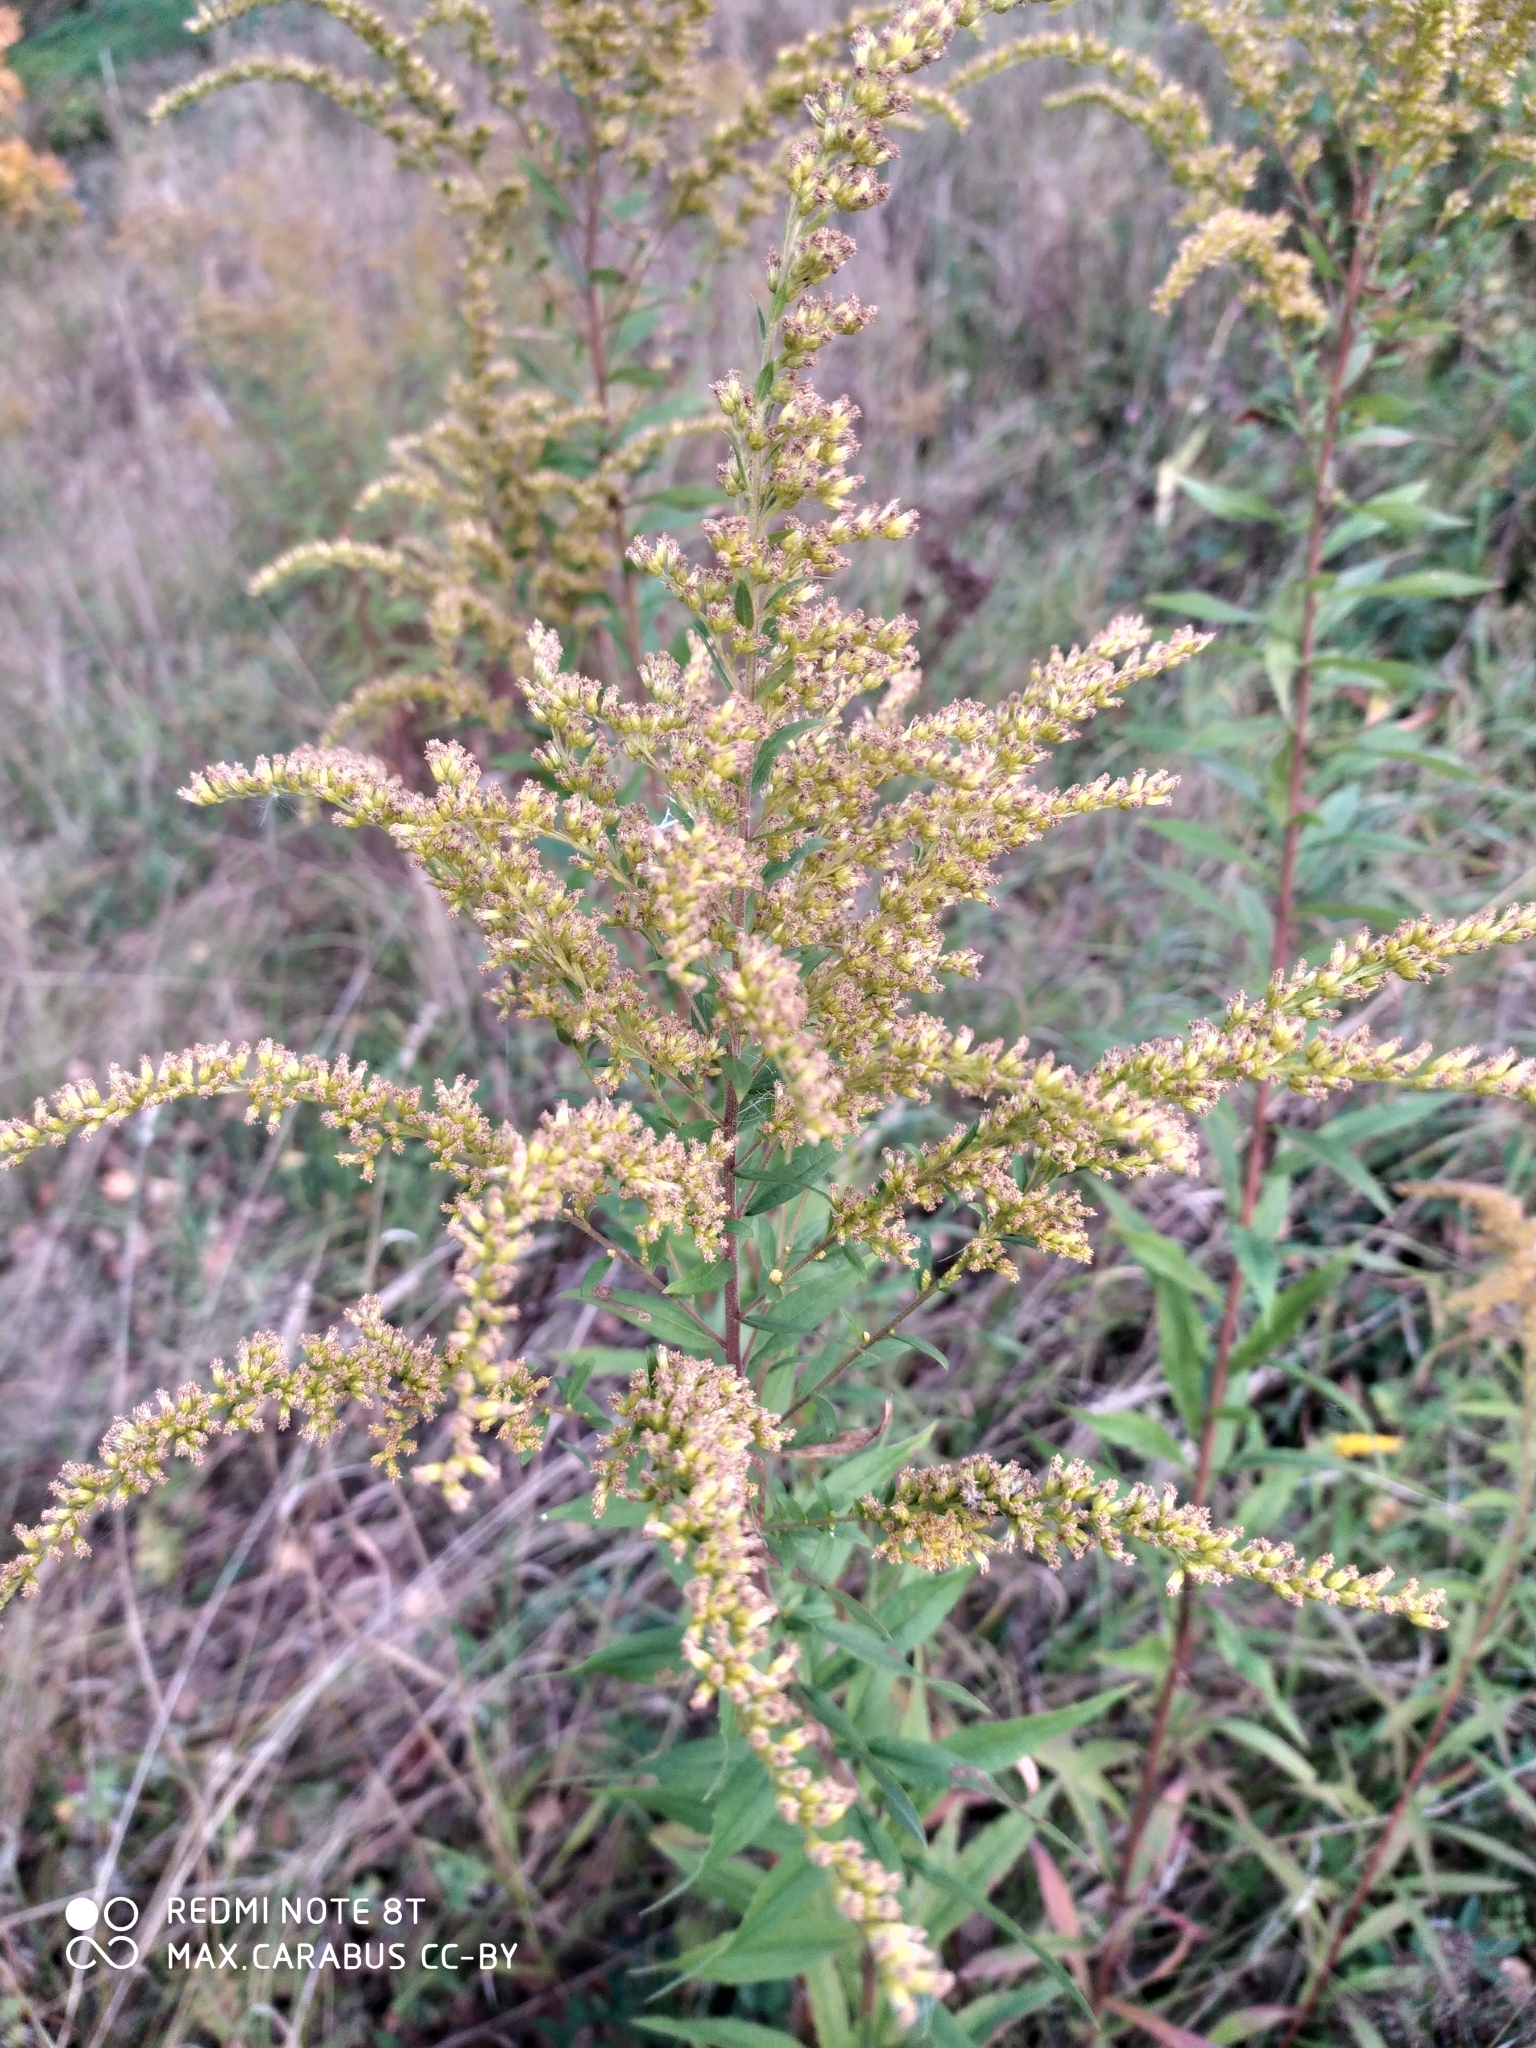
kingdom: Plantae
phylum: Tracheophyta
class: Magnoliopsida
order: Asterales
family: Asteraceae
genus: Solidago
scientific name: Solidago canadensis
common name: Canada goldenrod
